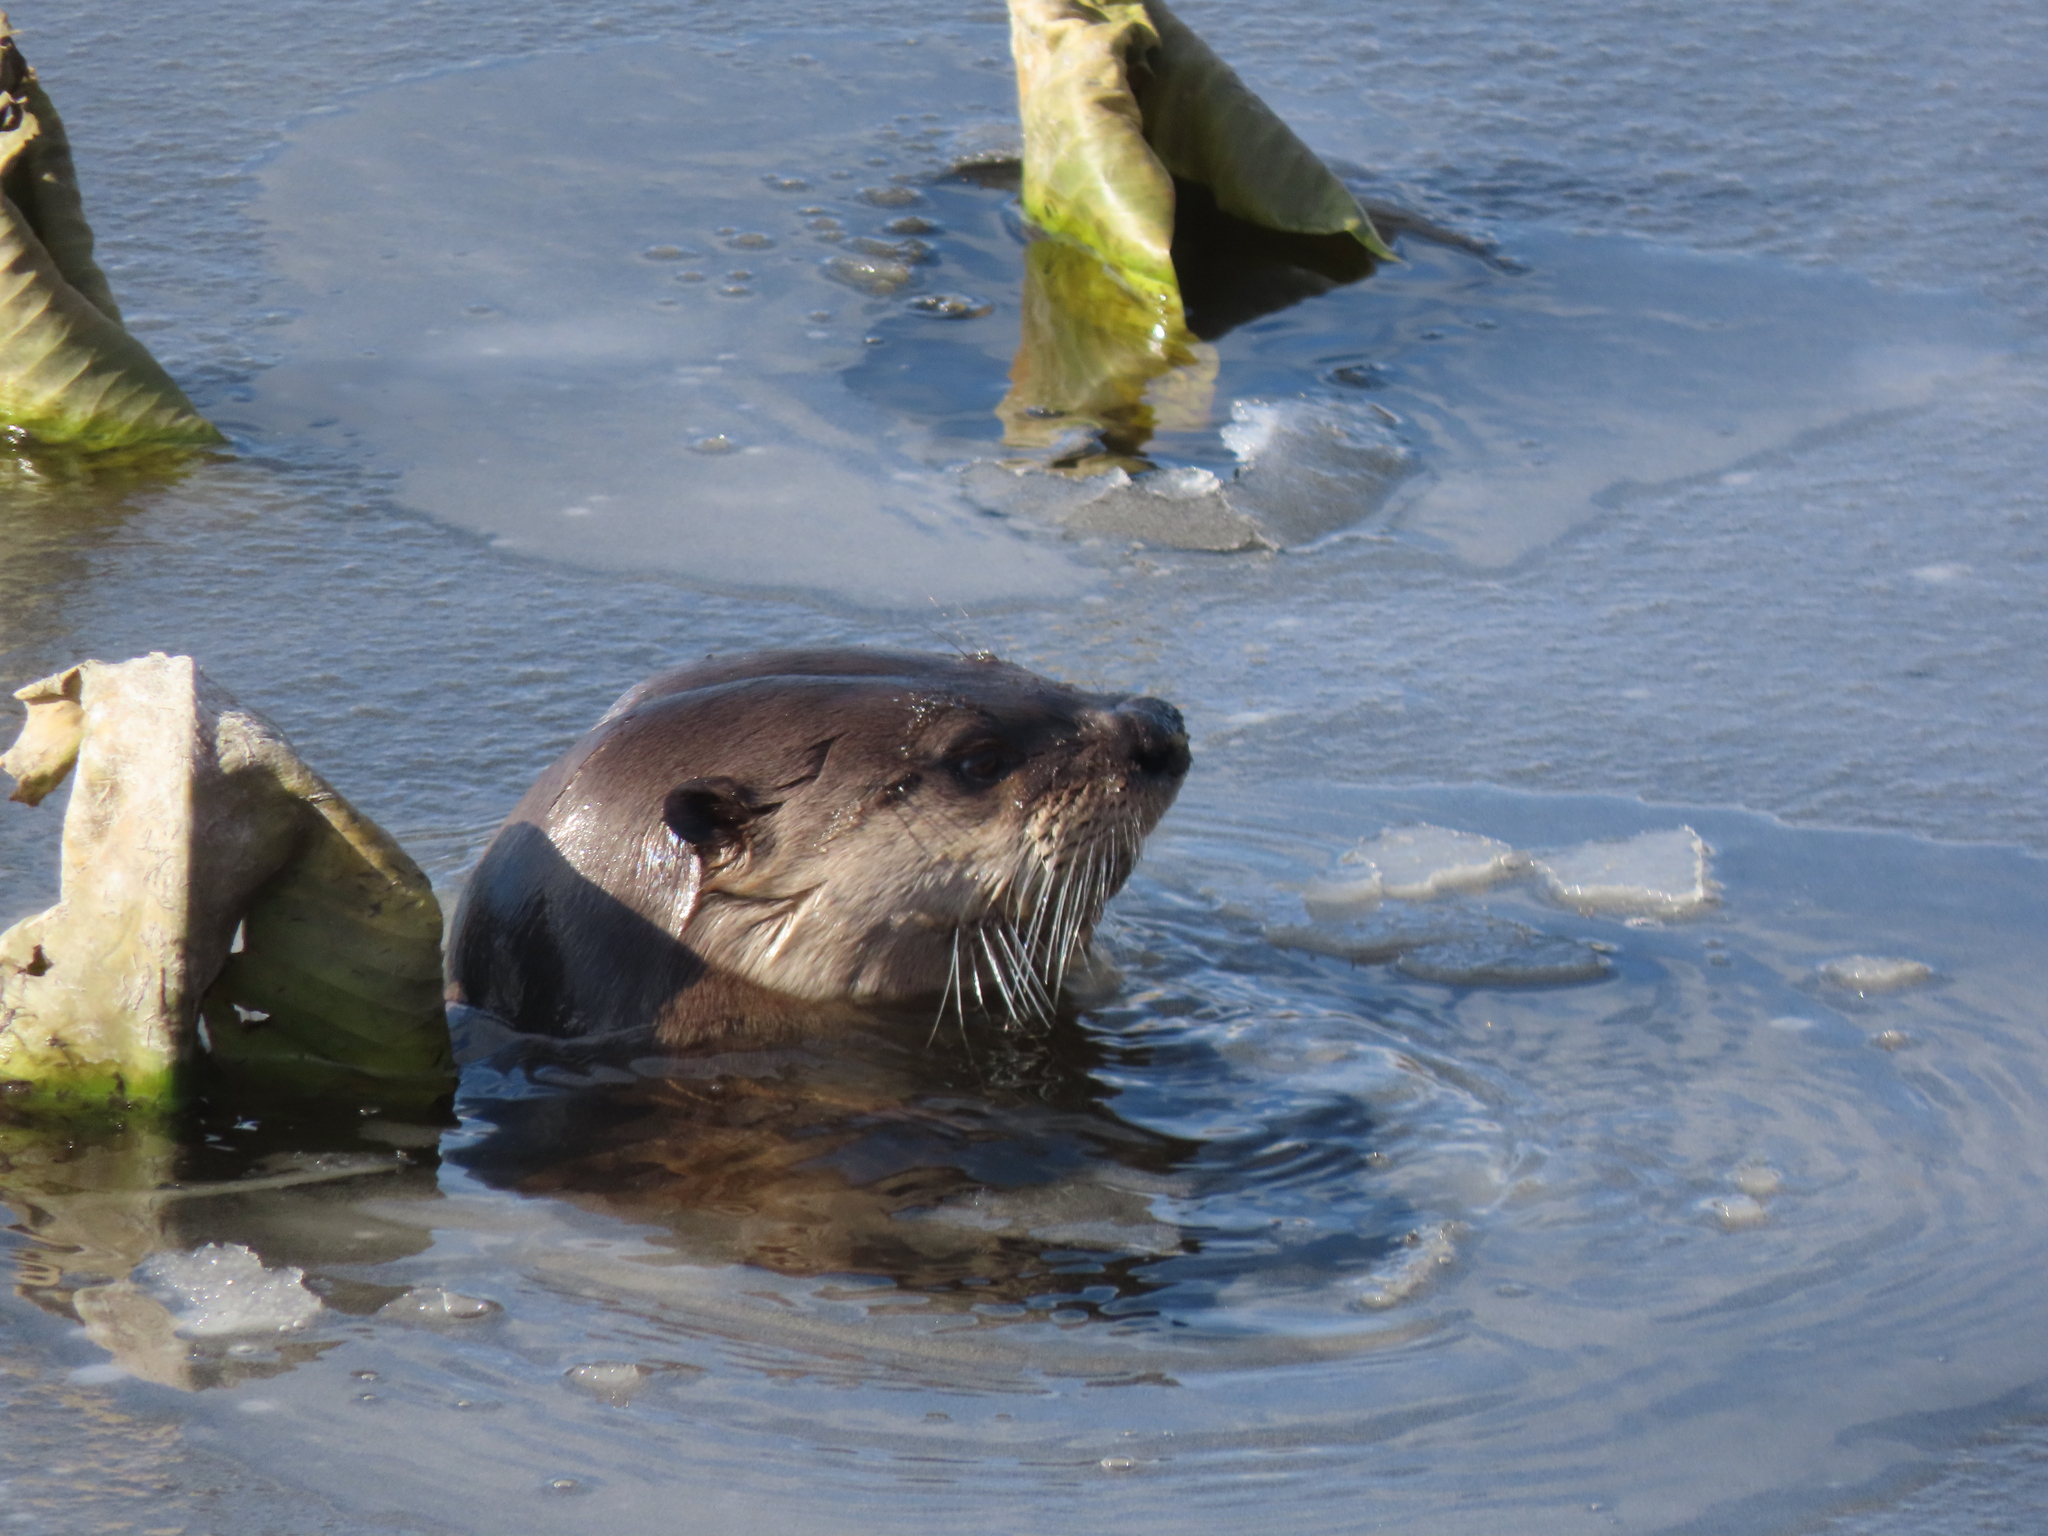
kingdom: Animalia
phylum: Chordata
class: Mammalia
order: Carnivora
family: Mustelidae
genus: Lontra
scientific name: Lontra canadensis
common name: North american river otter
